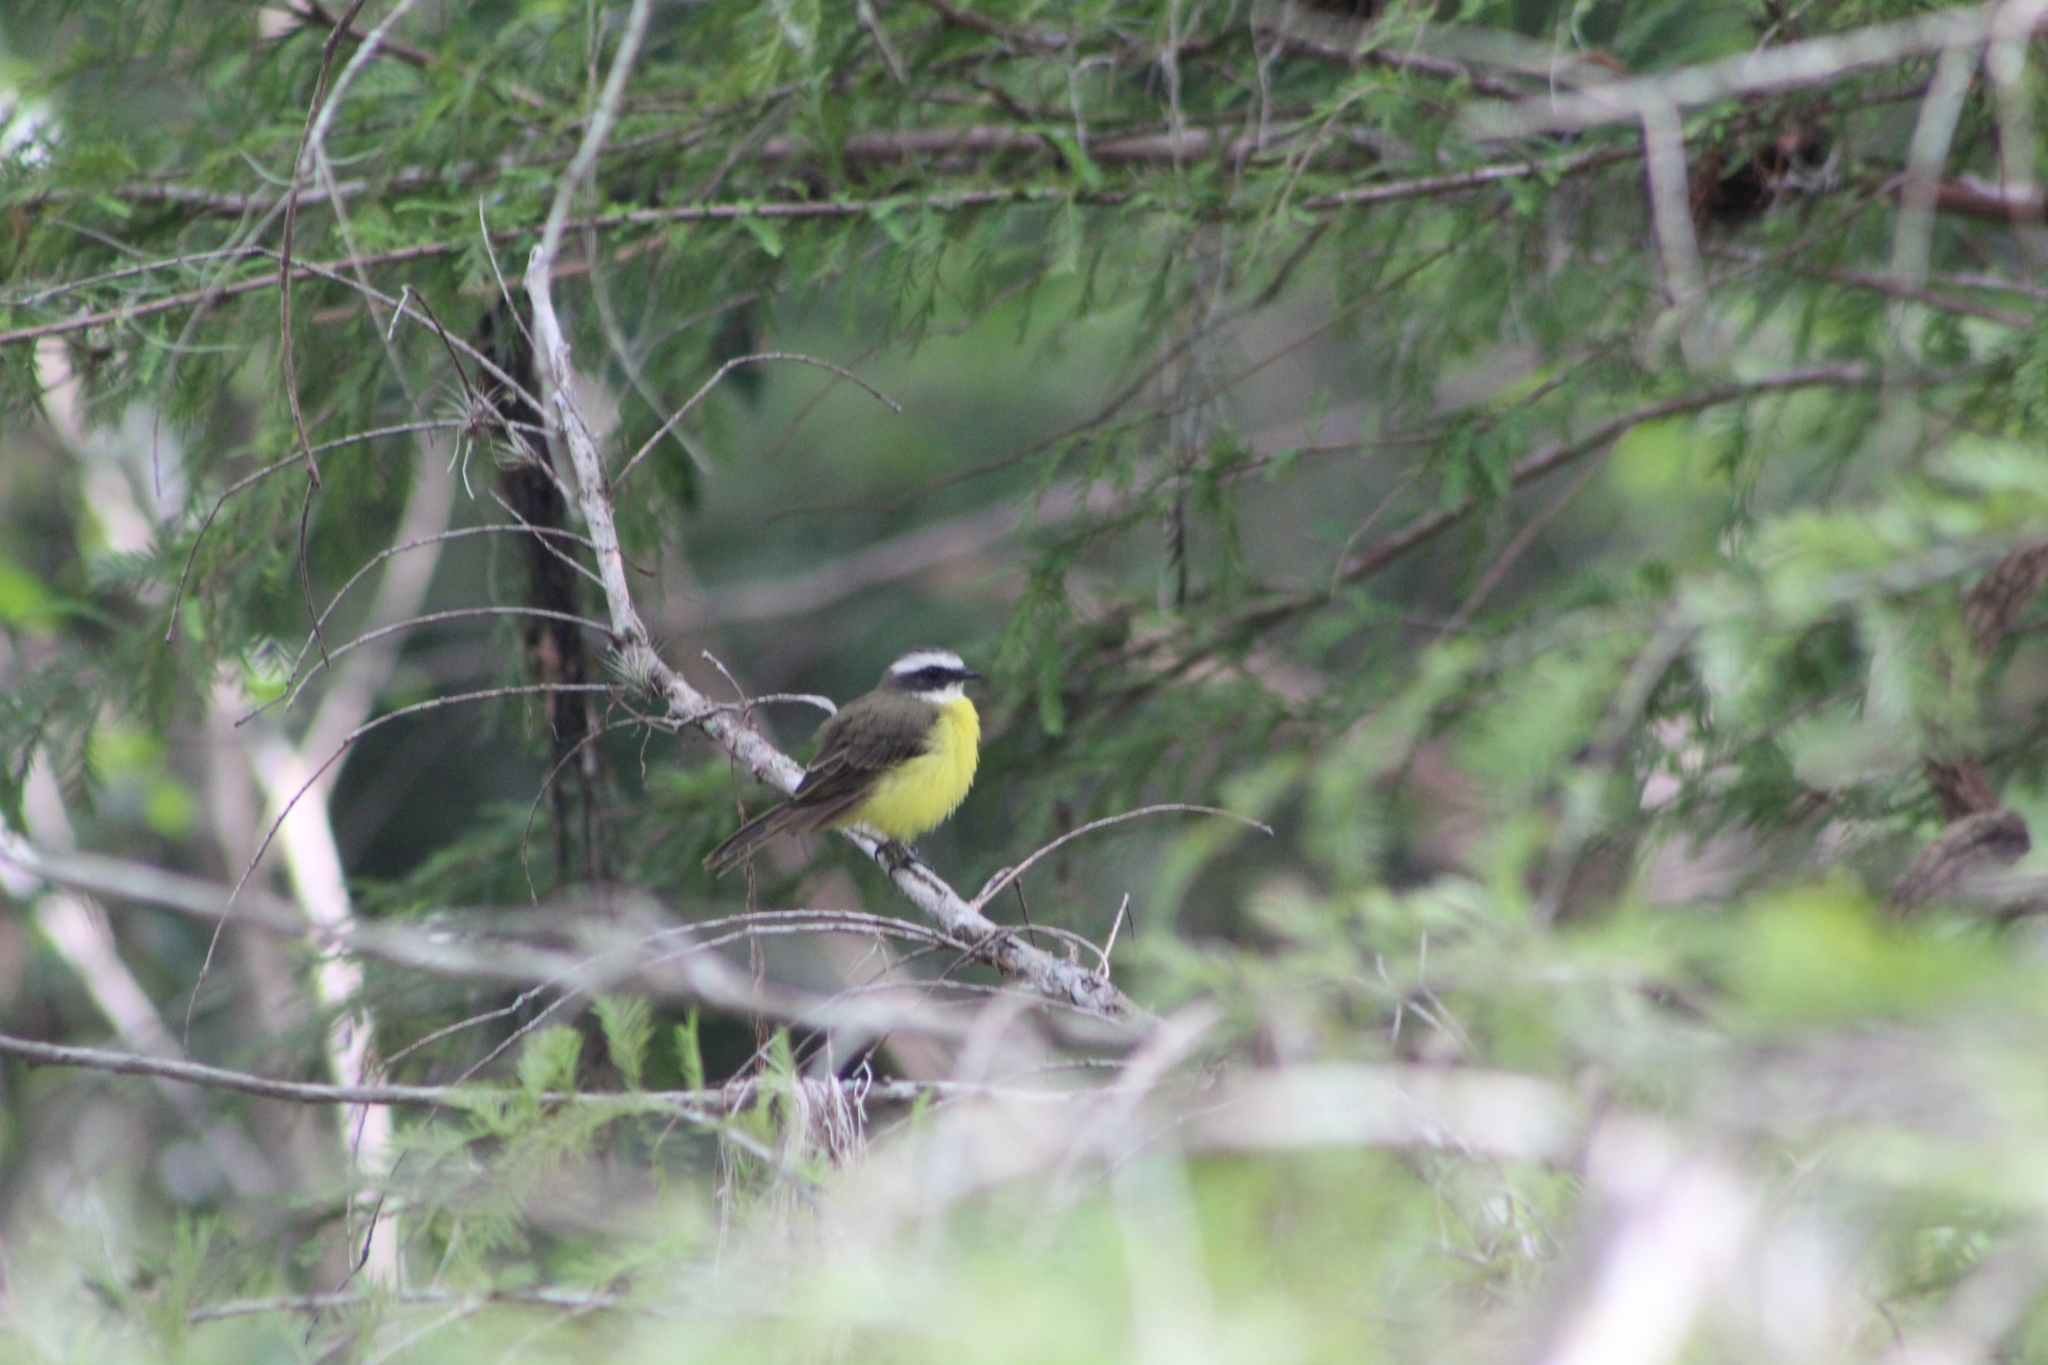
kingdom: Animalia
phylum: Chordata
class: Aves
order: Passeriformes
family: Tyrannidae
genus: Myiozetetes
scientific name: Myiozetetes similis
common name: Social flycatcher
